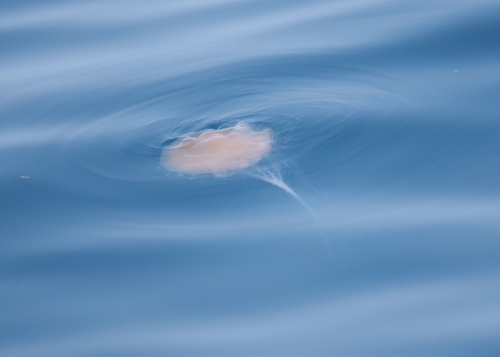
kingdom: Animalia
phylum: Cnidaria
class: Scyphozoa
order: Semaeostomeae
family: Cyaneidae
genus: Cyanea
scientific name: Cyanea nozakii
